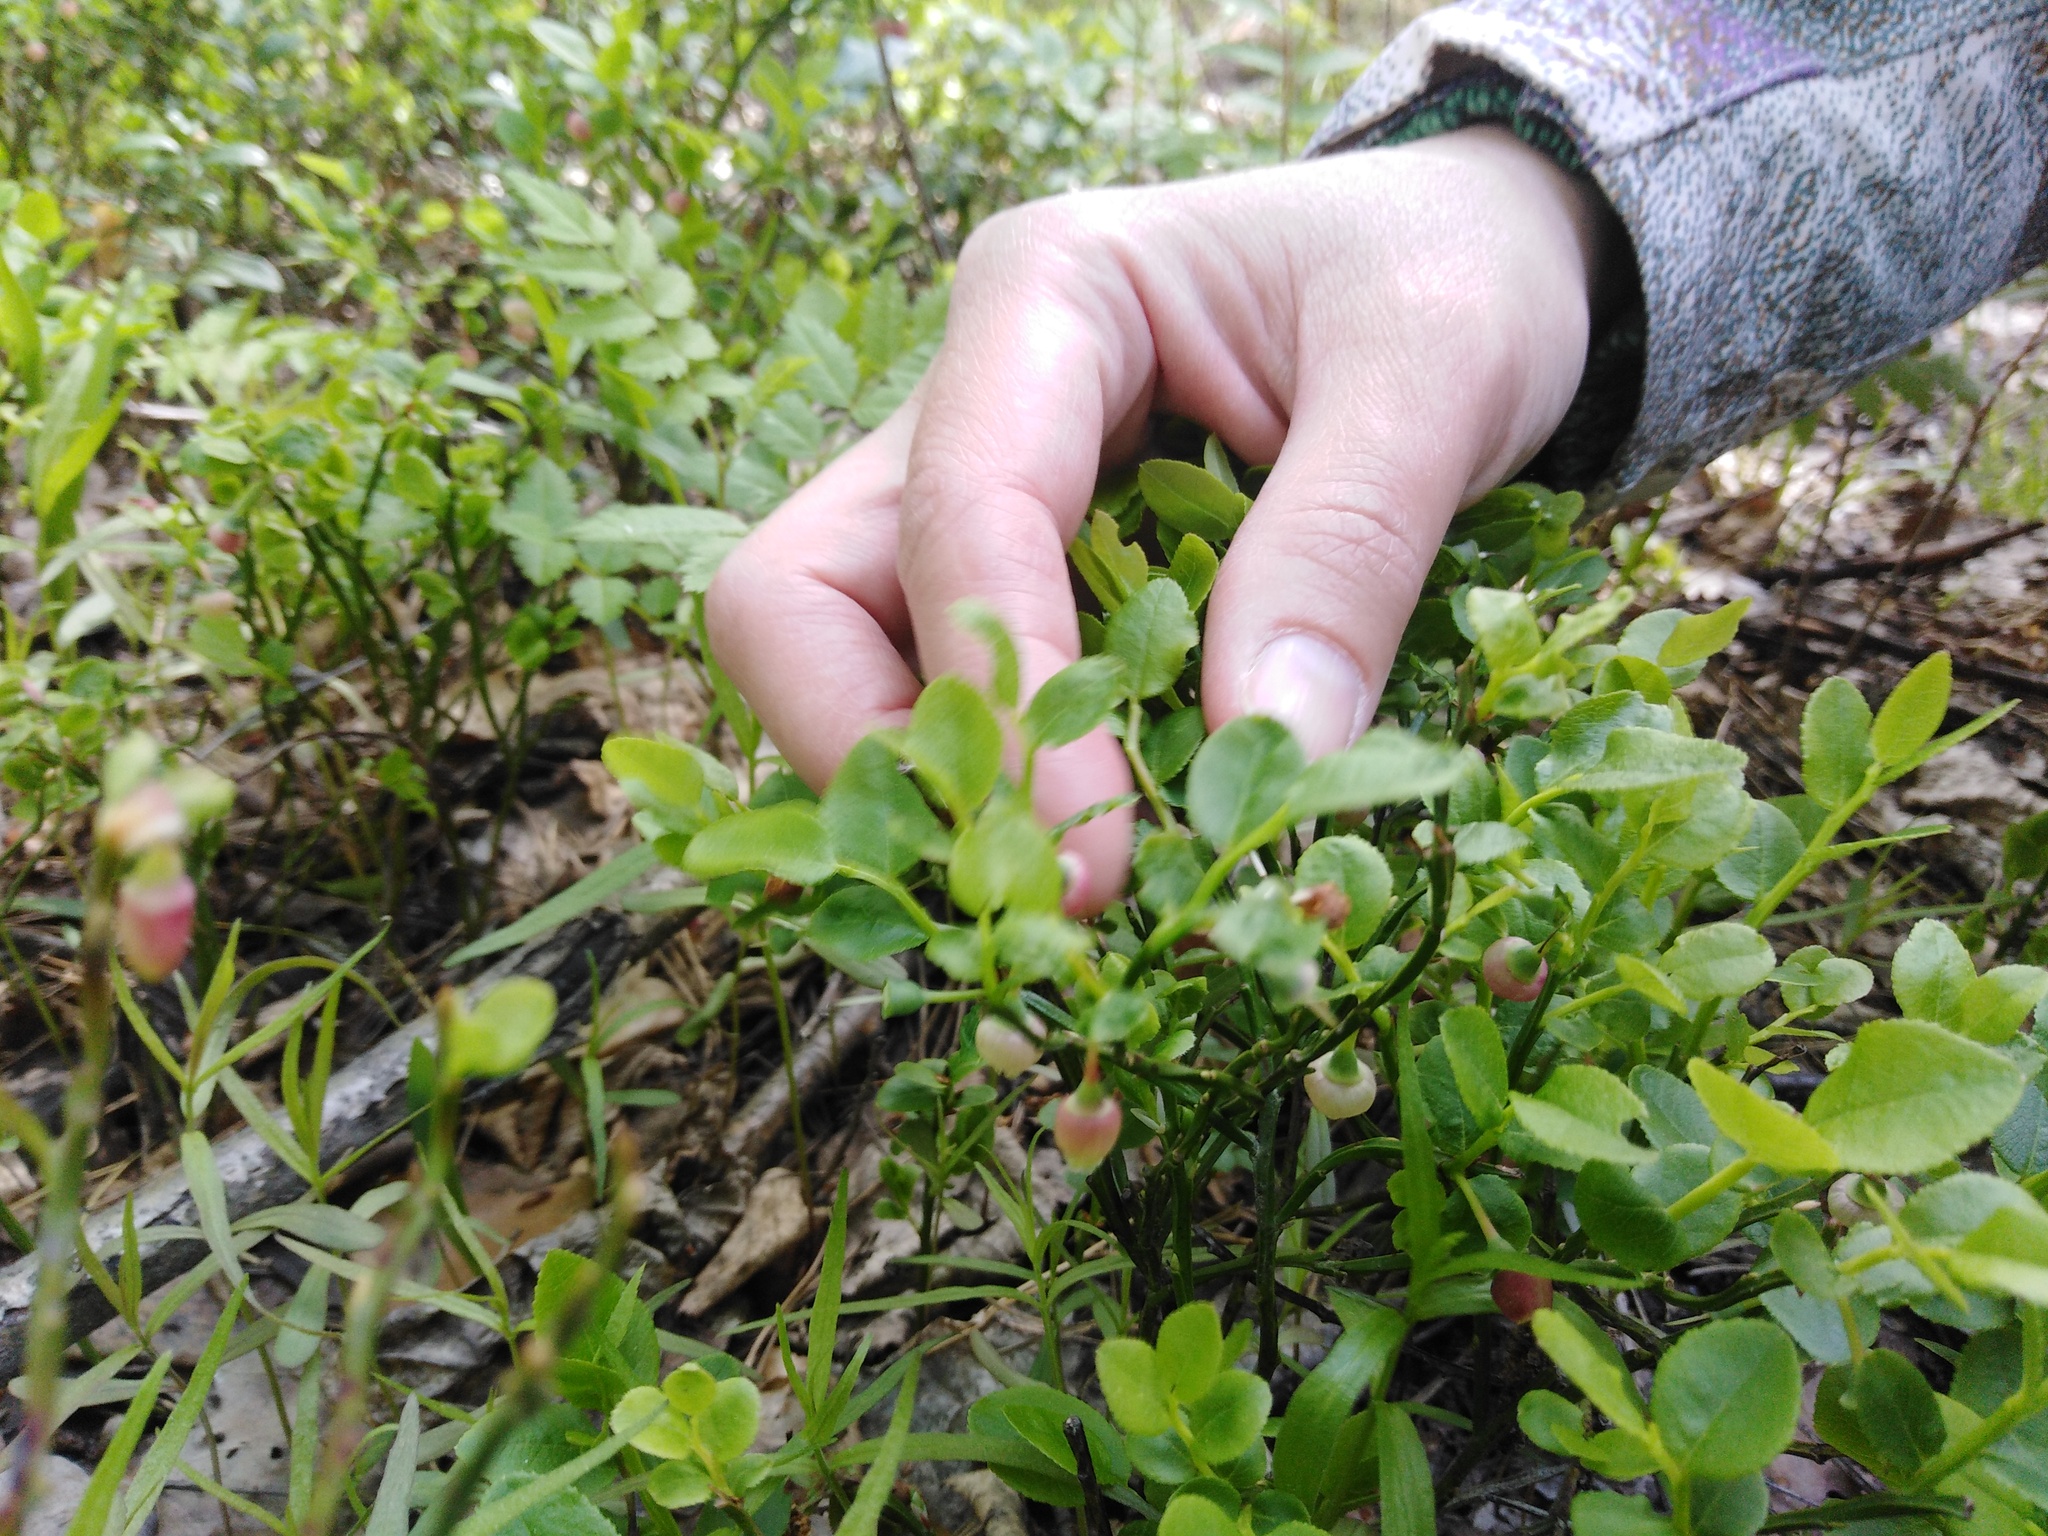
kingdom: Plantae
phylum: Tracheophyta
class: Magnoliopsida
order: Ericales
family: Ericaceae
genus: Vaccinium
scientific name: Vaccinium myrtillus
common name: Bilberry
